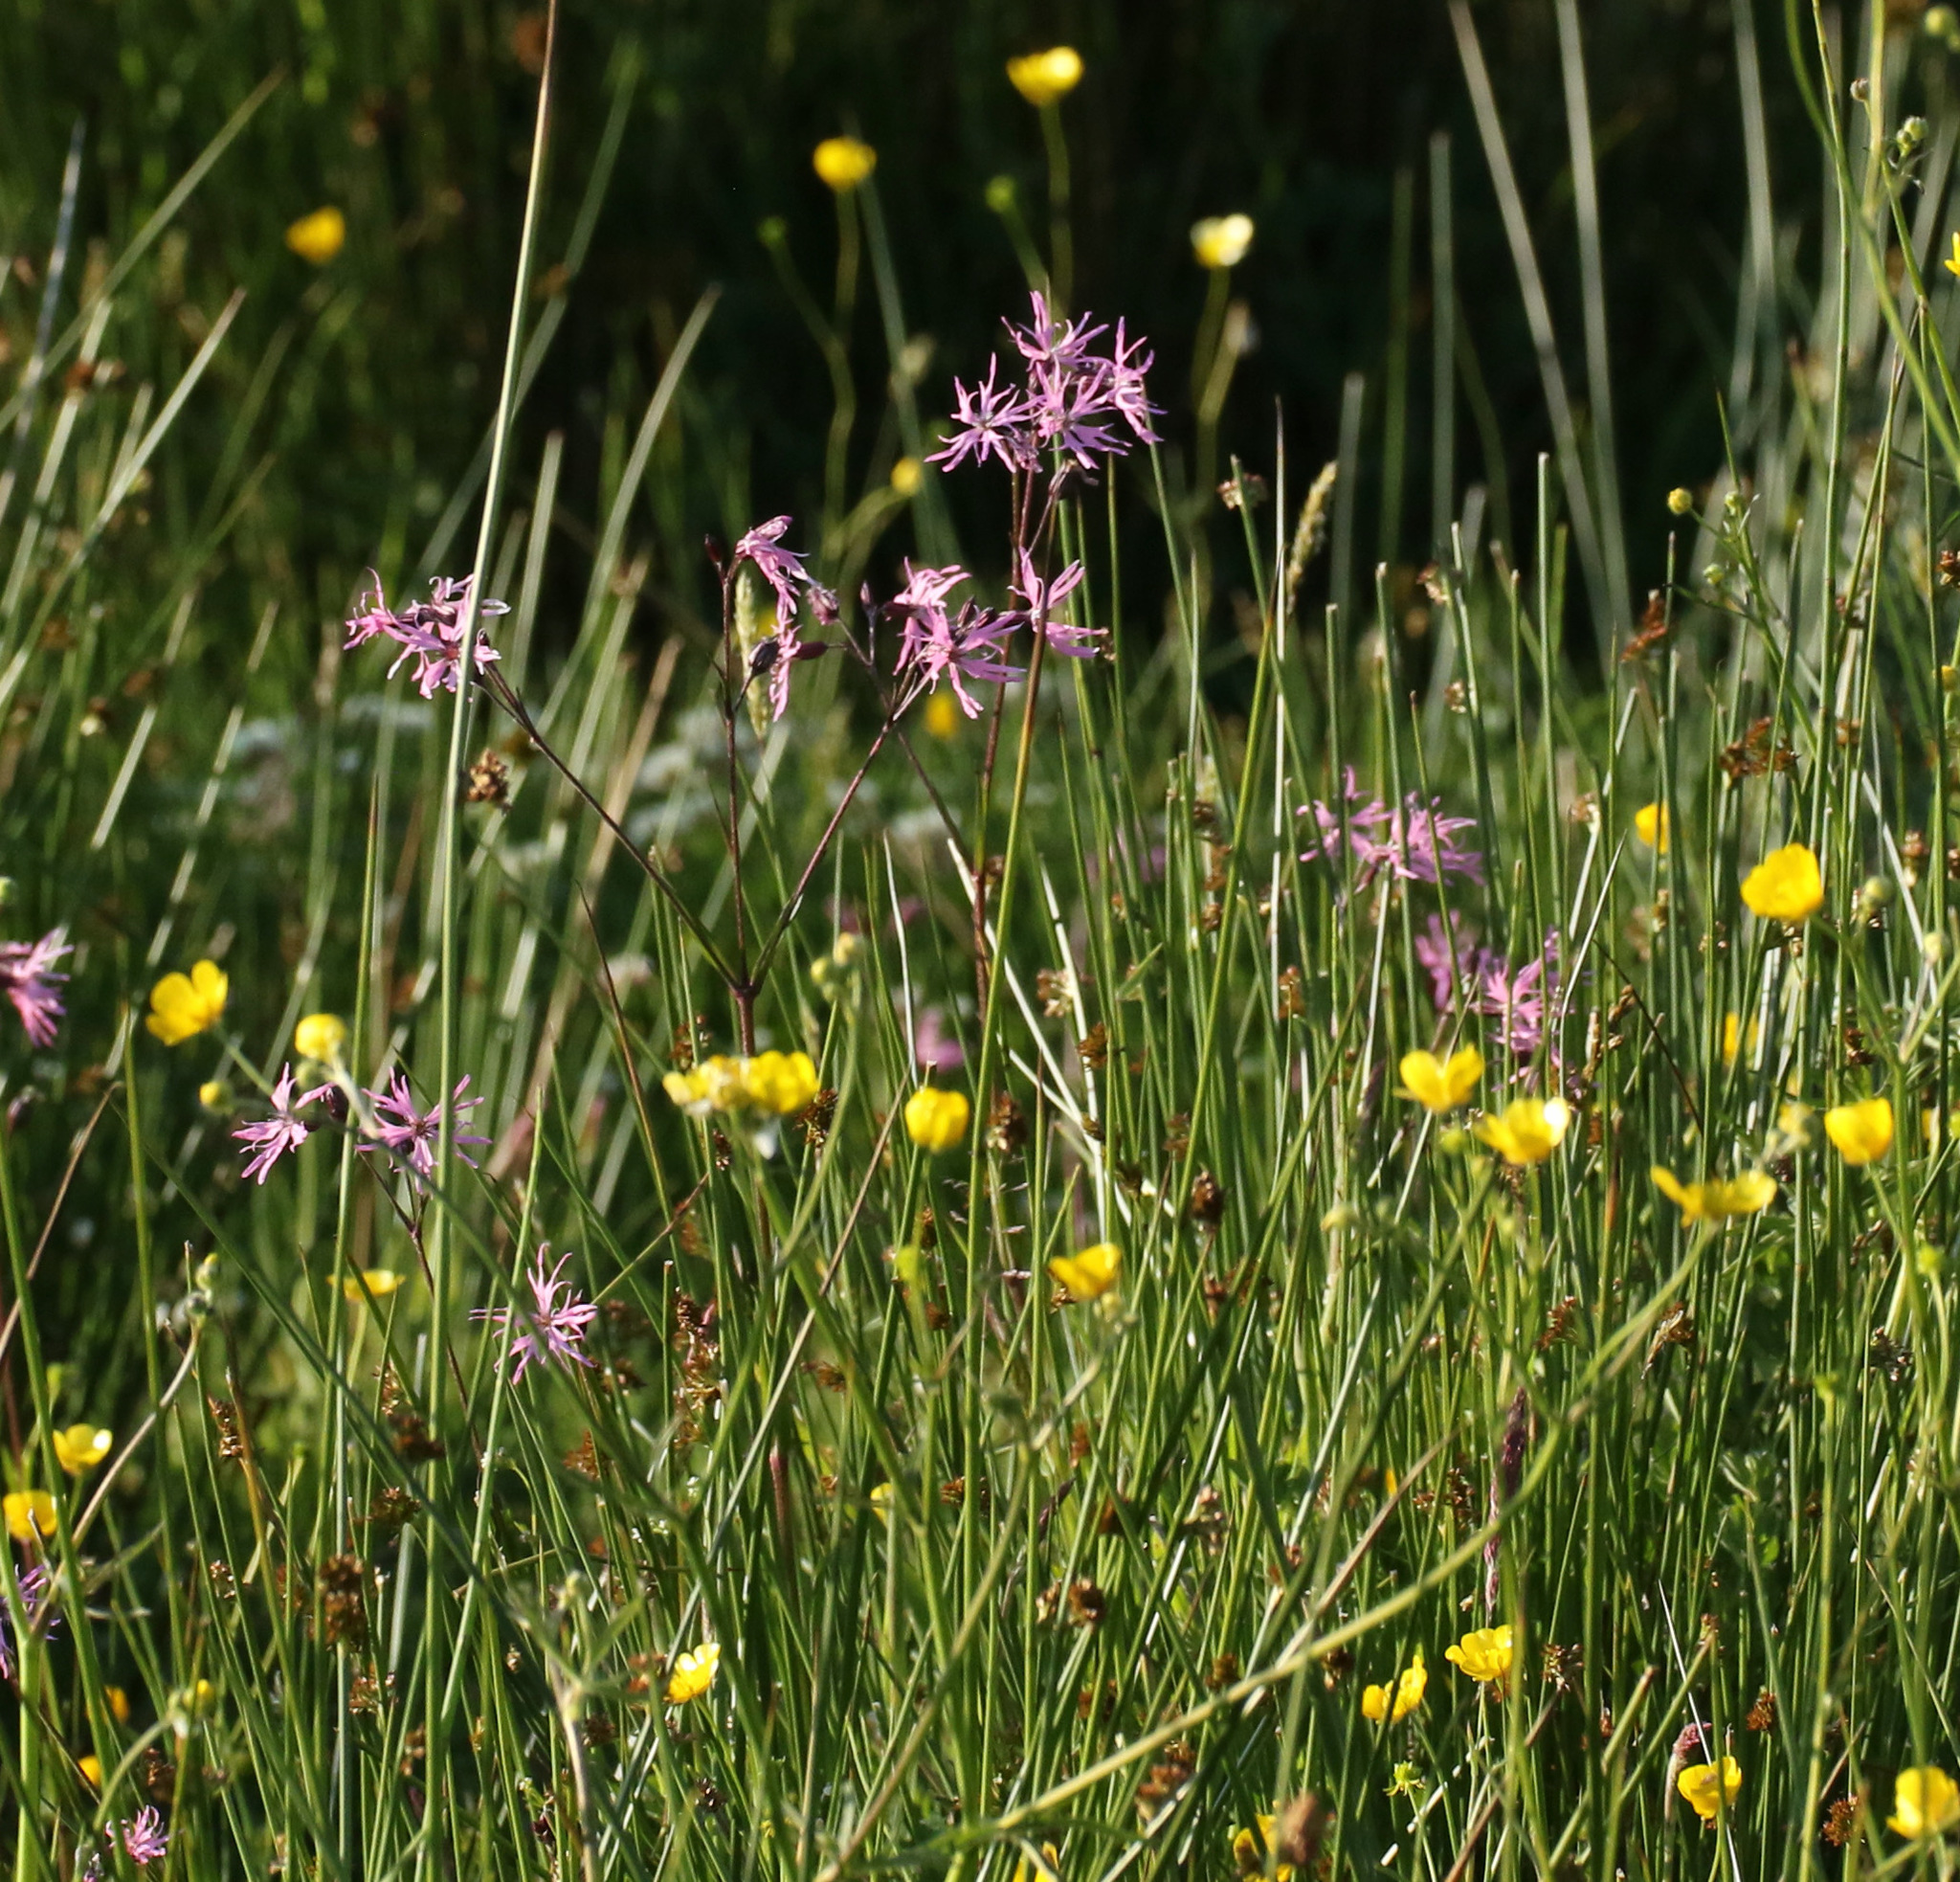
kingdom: Plantae
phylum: Tracheophyta
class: Magnoliopsida
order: Caryophyllales
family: Caryophyllaceae
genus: Silene
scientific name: Silene flos-cuculi
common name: Ragged-robin
